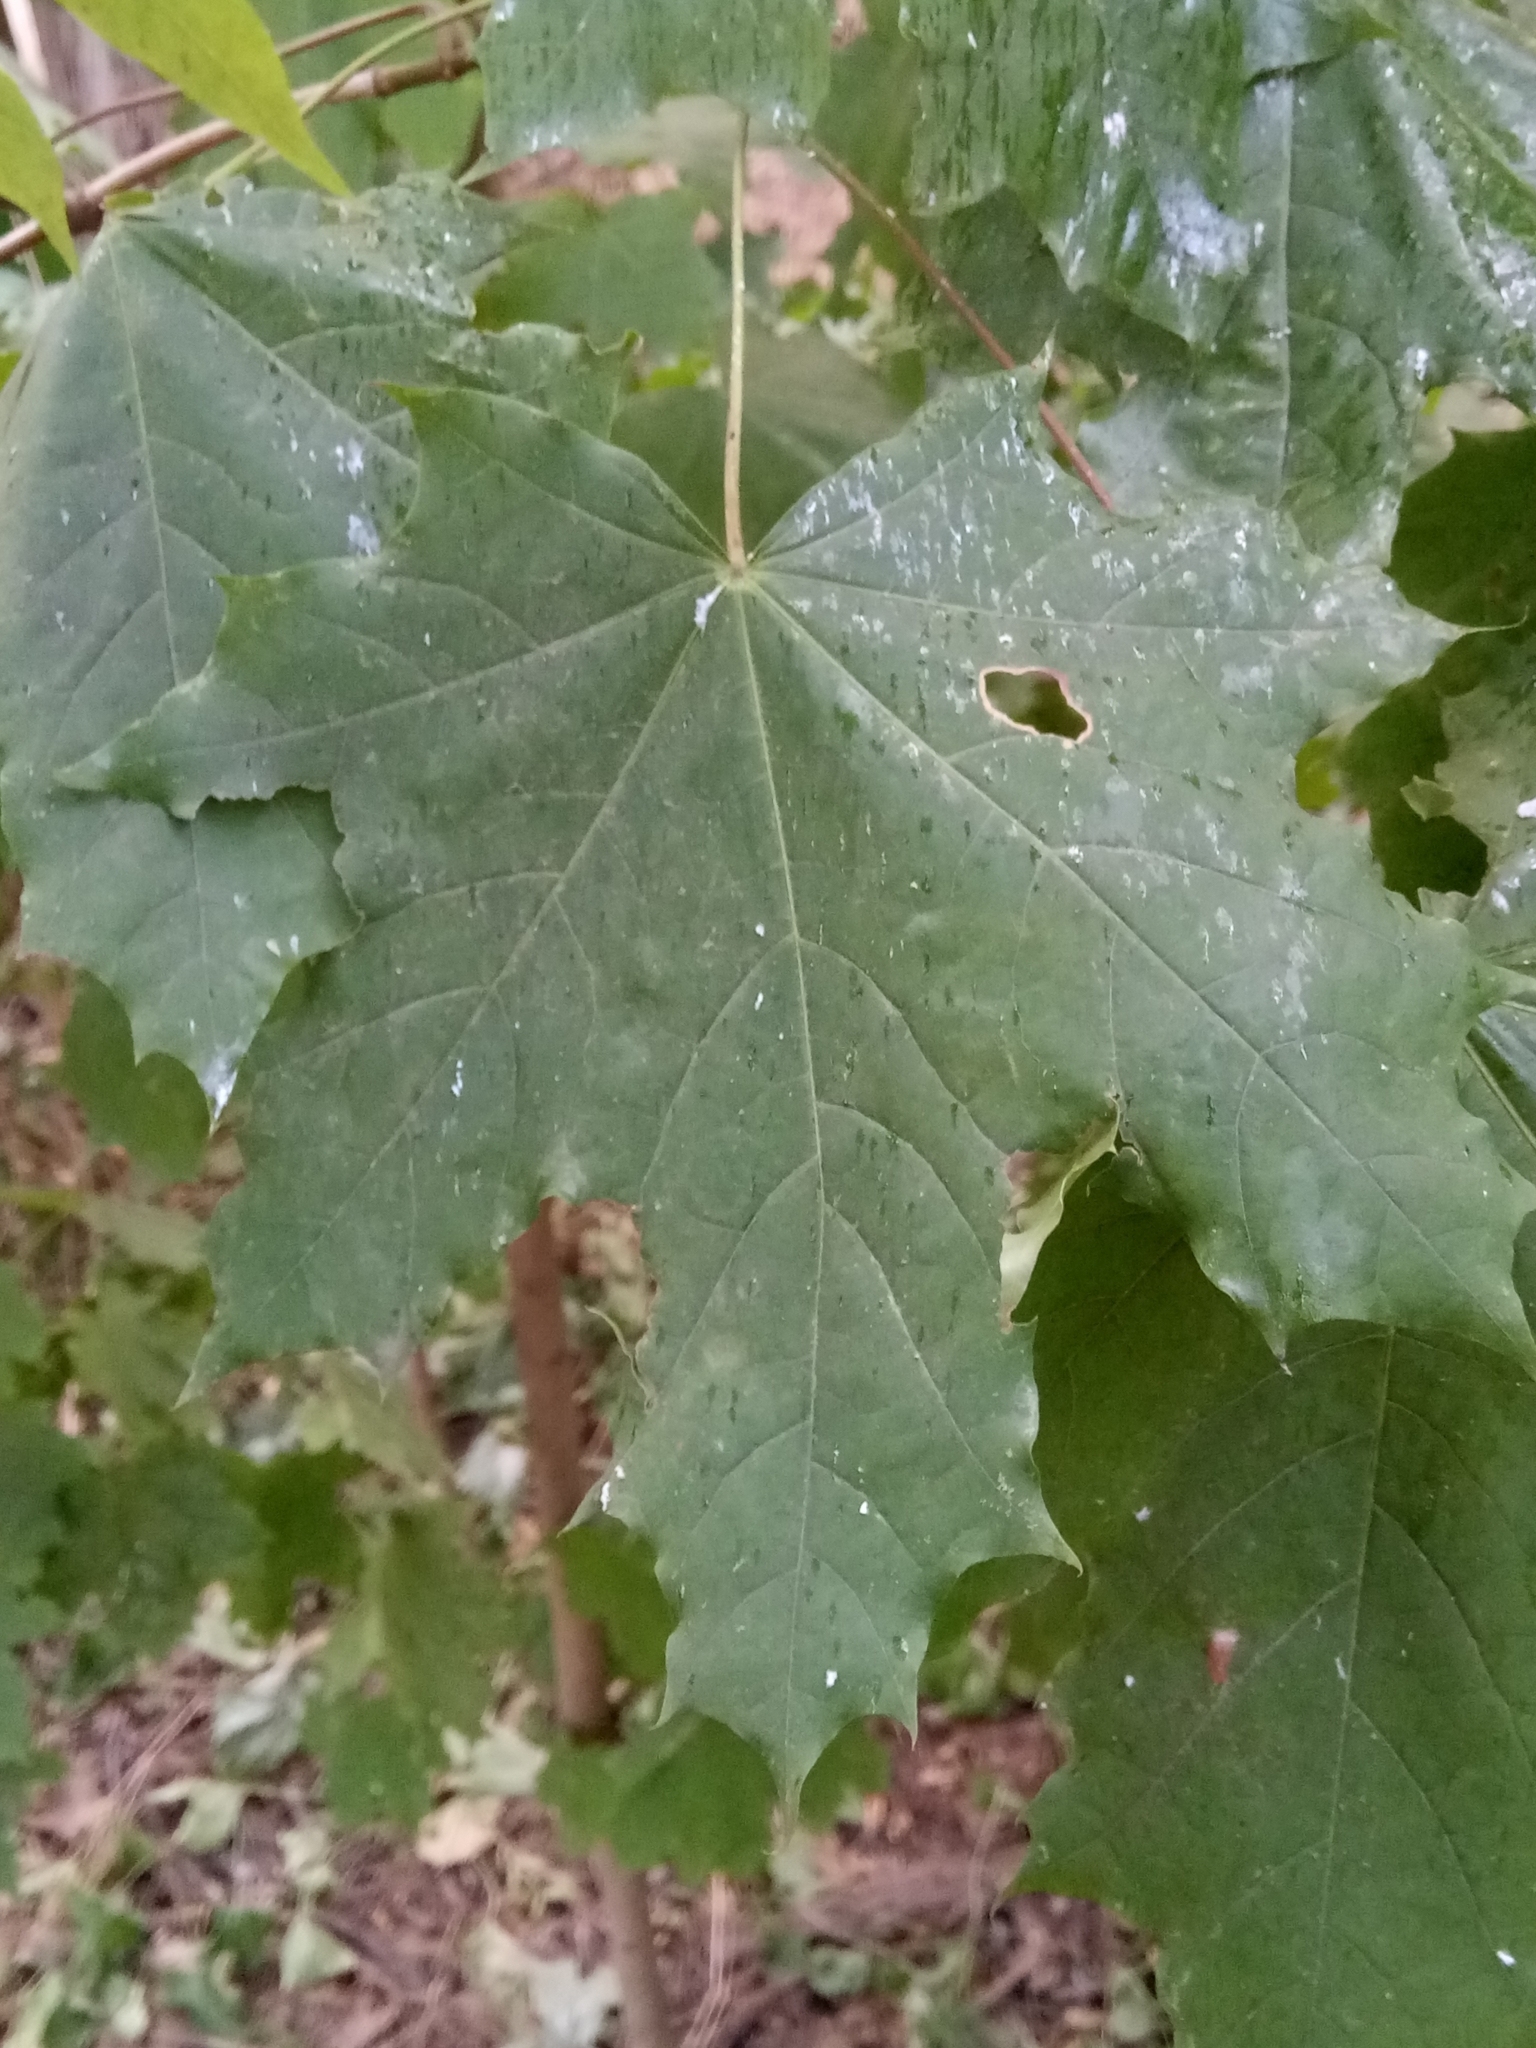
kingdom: Plantae
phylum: Tracheophyta
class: Magnoliopsida
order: Sapindales
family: Sapindaceae
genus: Acer
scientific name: Acer platanoides
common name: Norway maple
